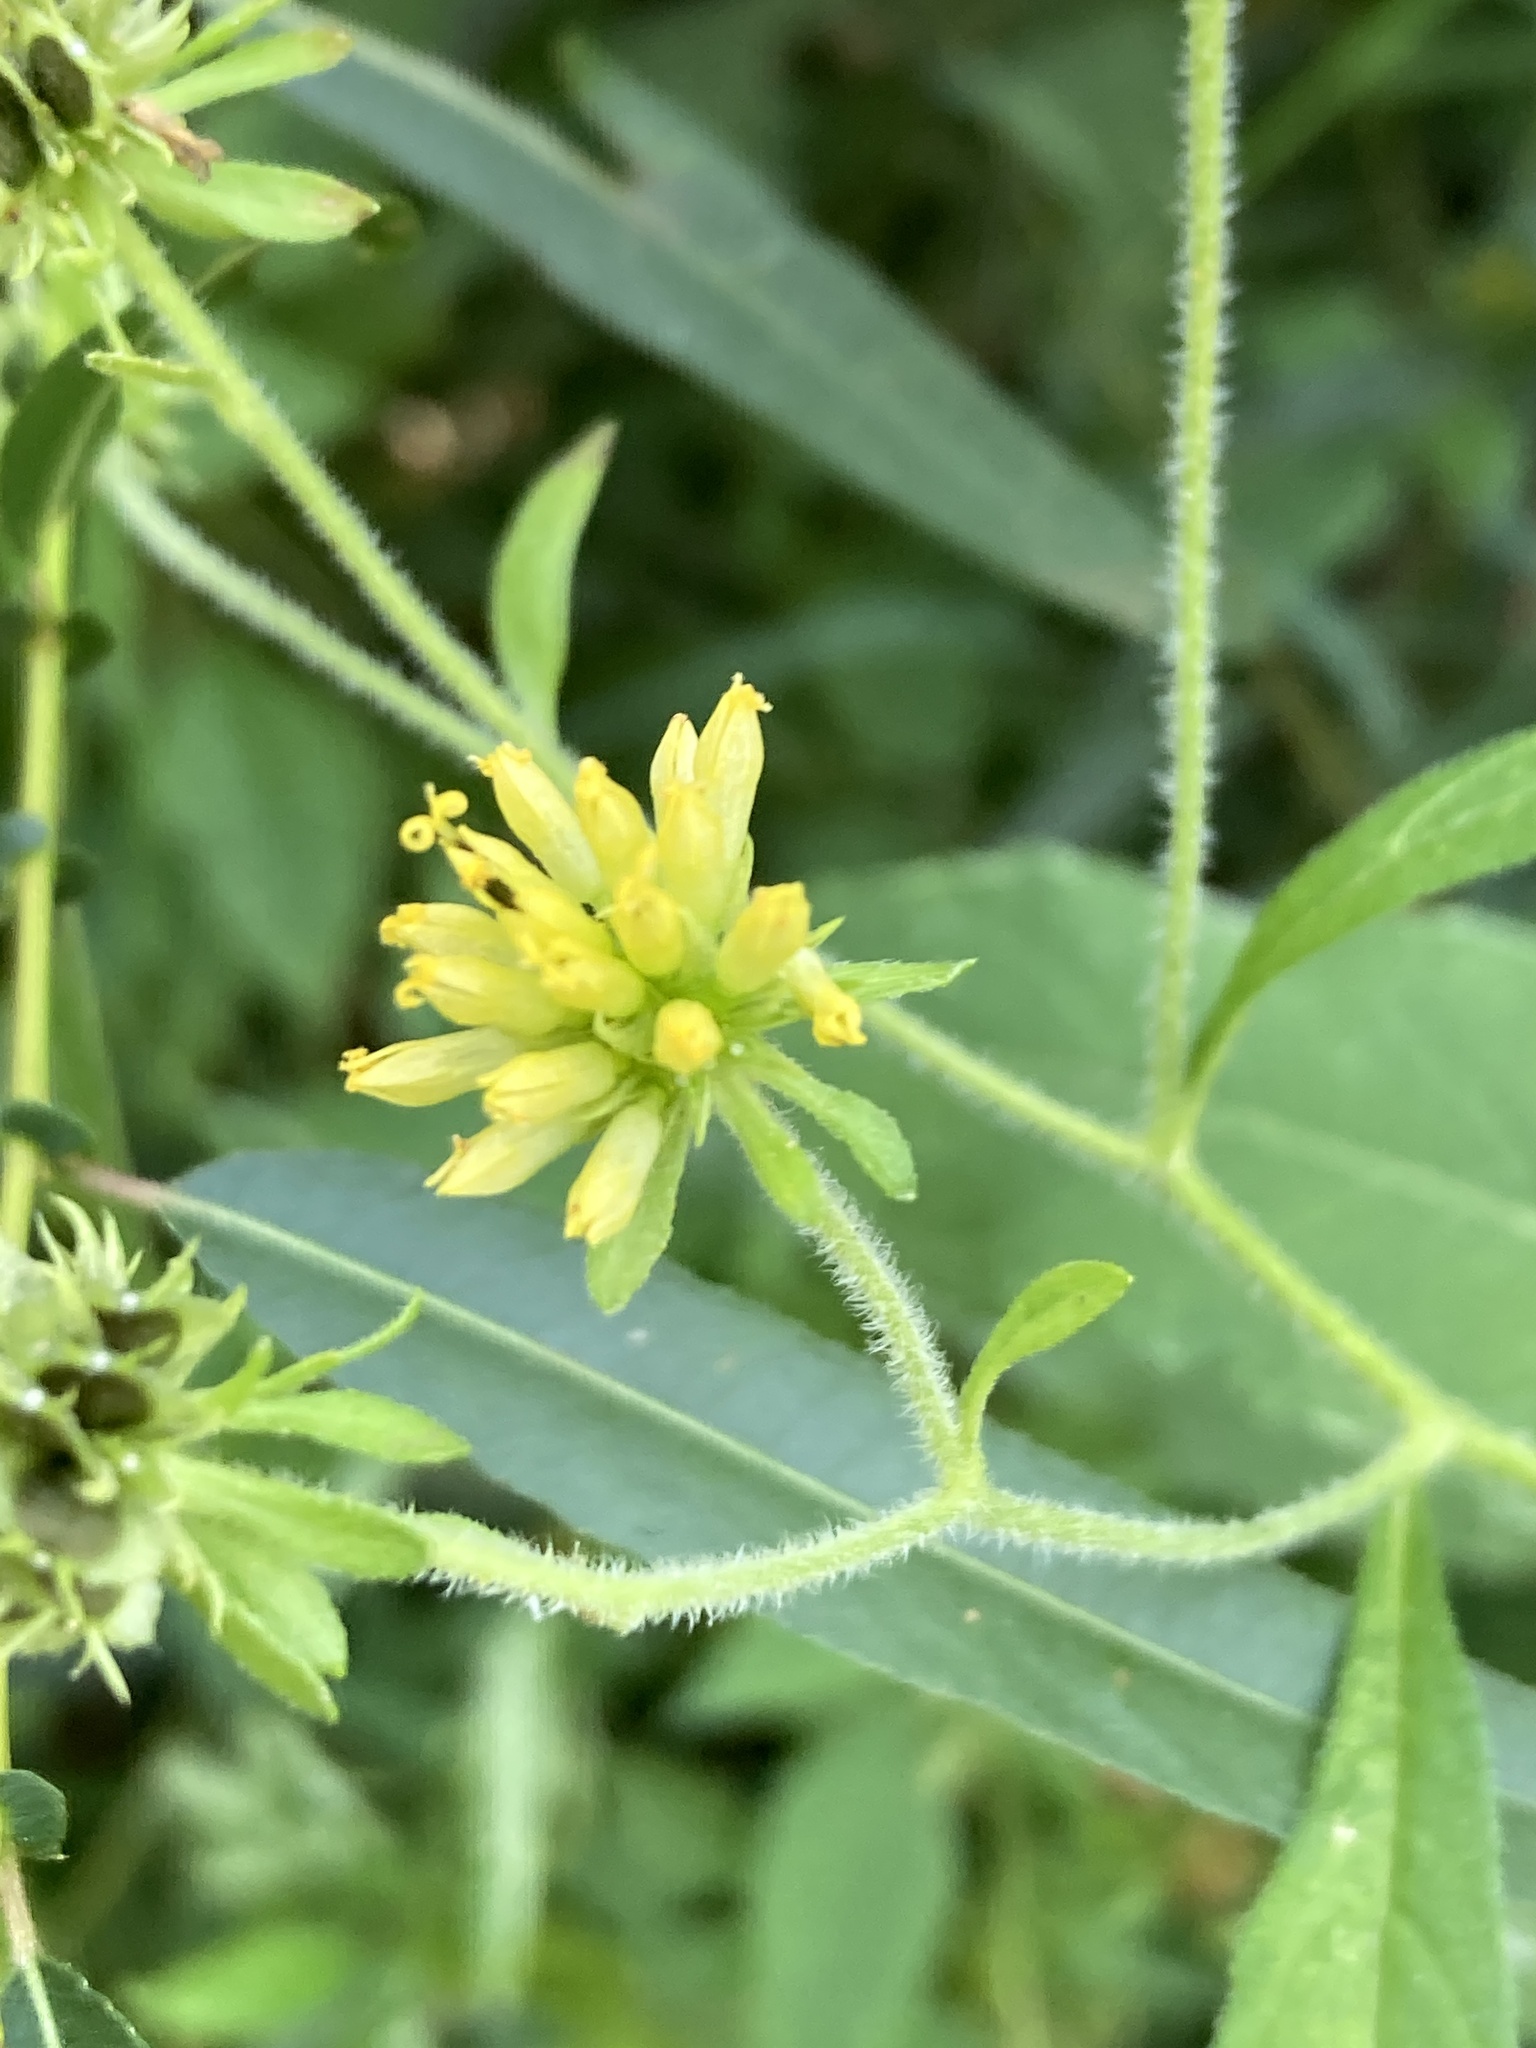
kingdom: Plantae
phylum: Tracheophyta
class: Magnoliopsida
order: Asterales
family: Asteraceae
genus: Verbesina
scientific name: Verbesina alternifolia
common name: Wingstem
